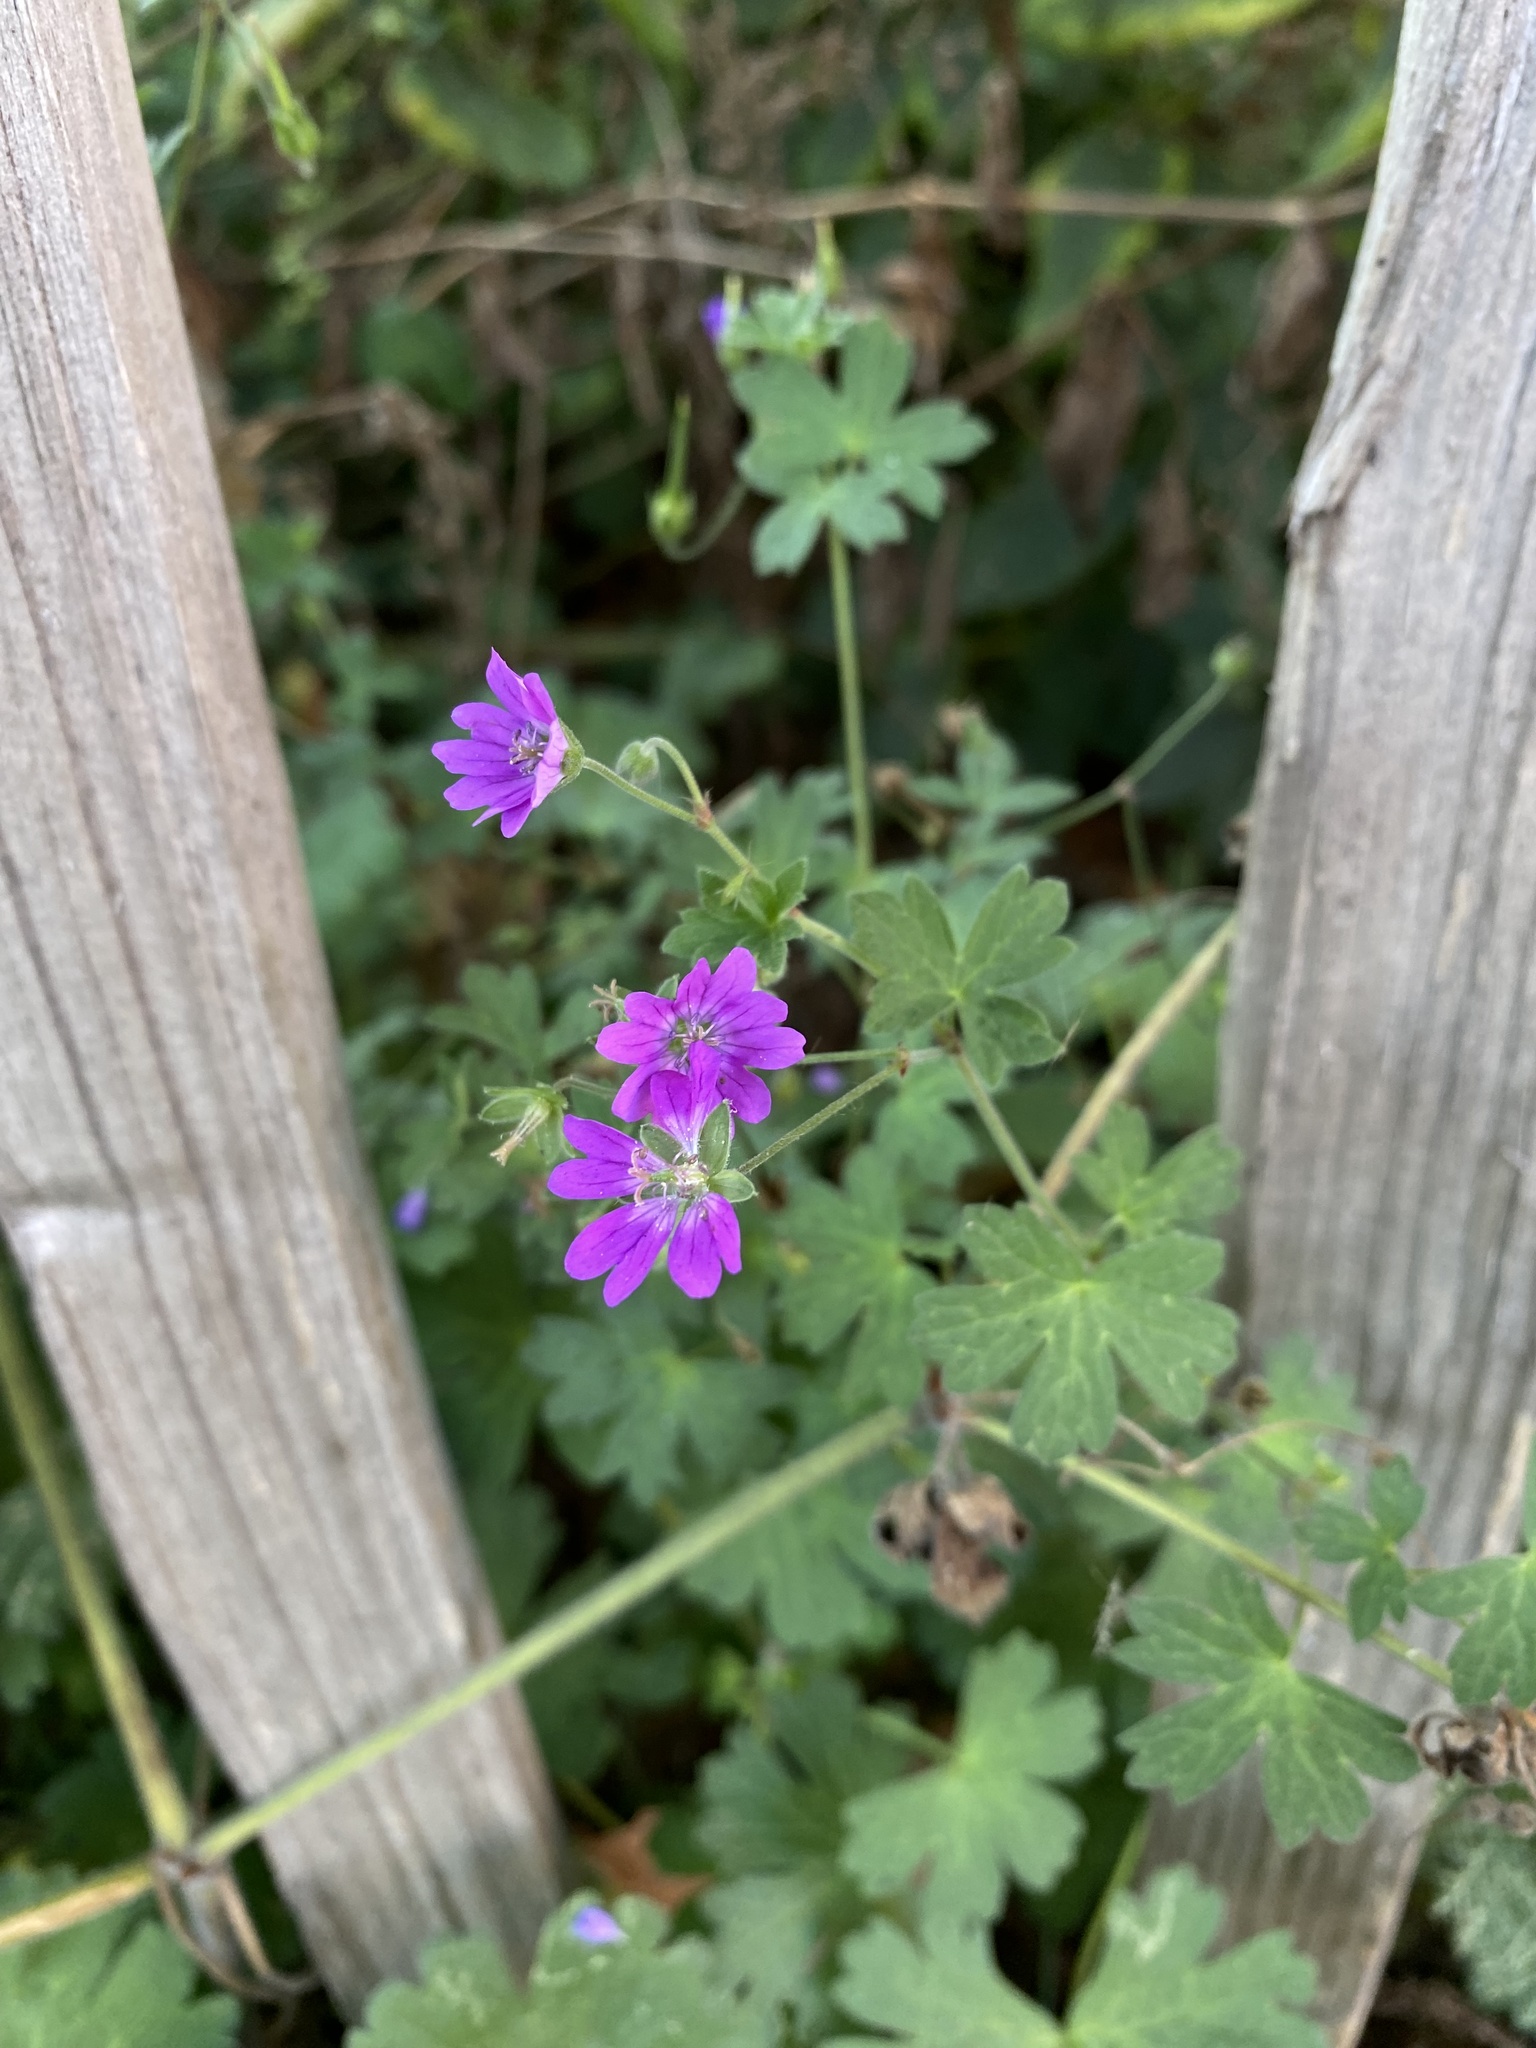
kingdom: Plantae
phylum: Tracheophyta
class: Magnoliopsida
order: Geraniales
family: Geraniaceae
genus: Geranium
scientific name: Geranium pyrenaicum
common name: Hedgerow crane's-bill
